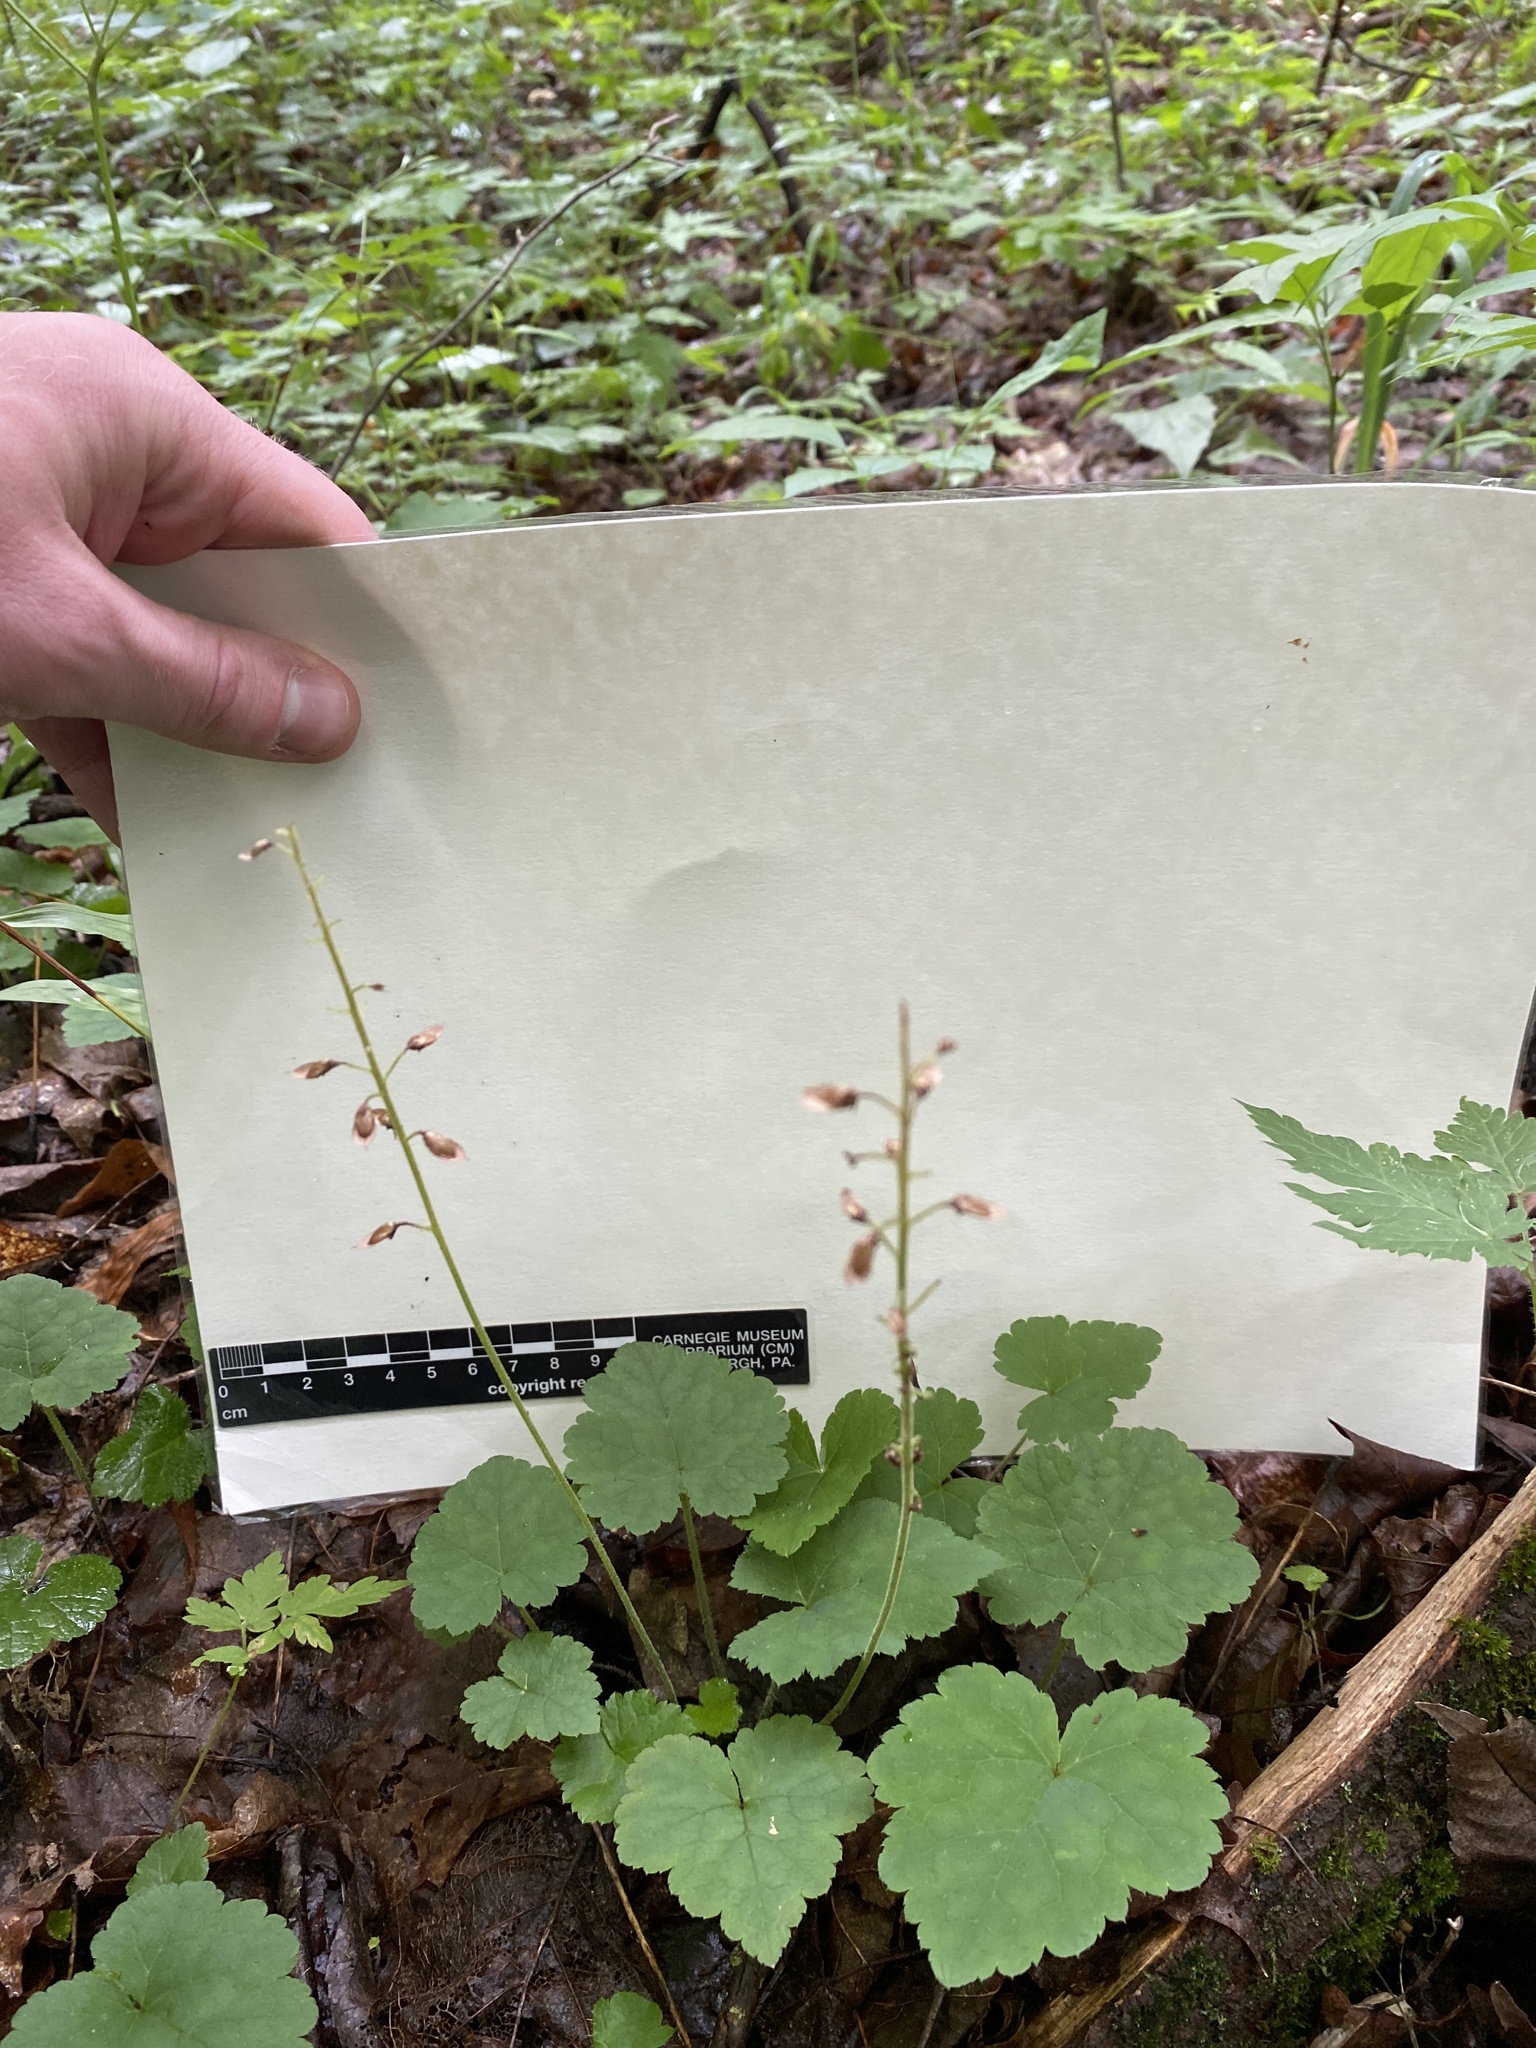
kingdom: Plantae
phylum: Tracheophyta
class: Magnoliopsida
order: Saxifragales
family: Saxifragaceae
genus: Tiarella
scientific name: Tiarella stolonifera
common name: Stoloniferous foamflower
